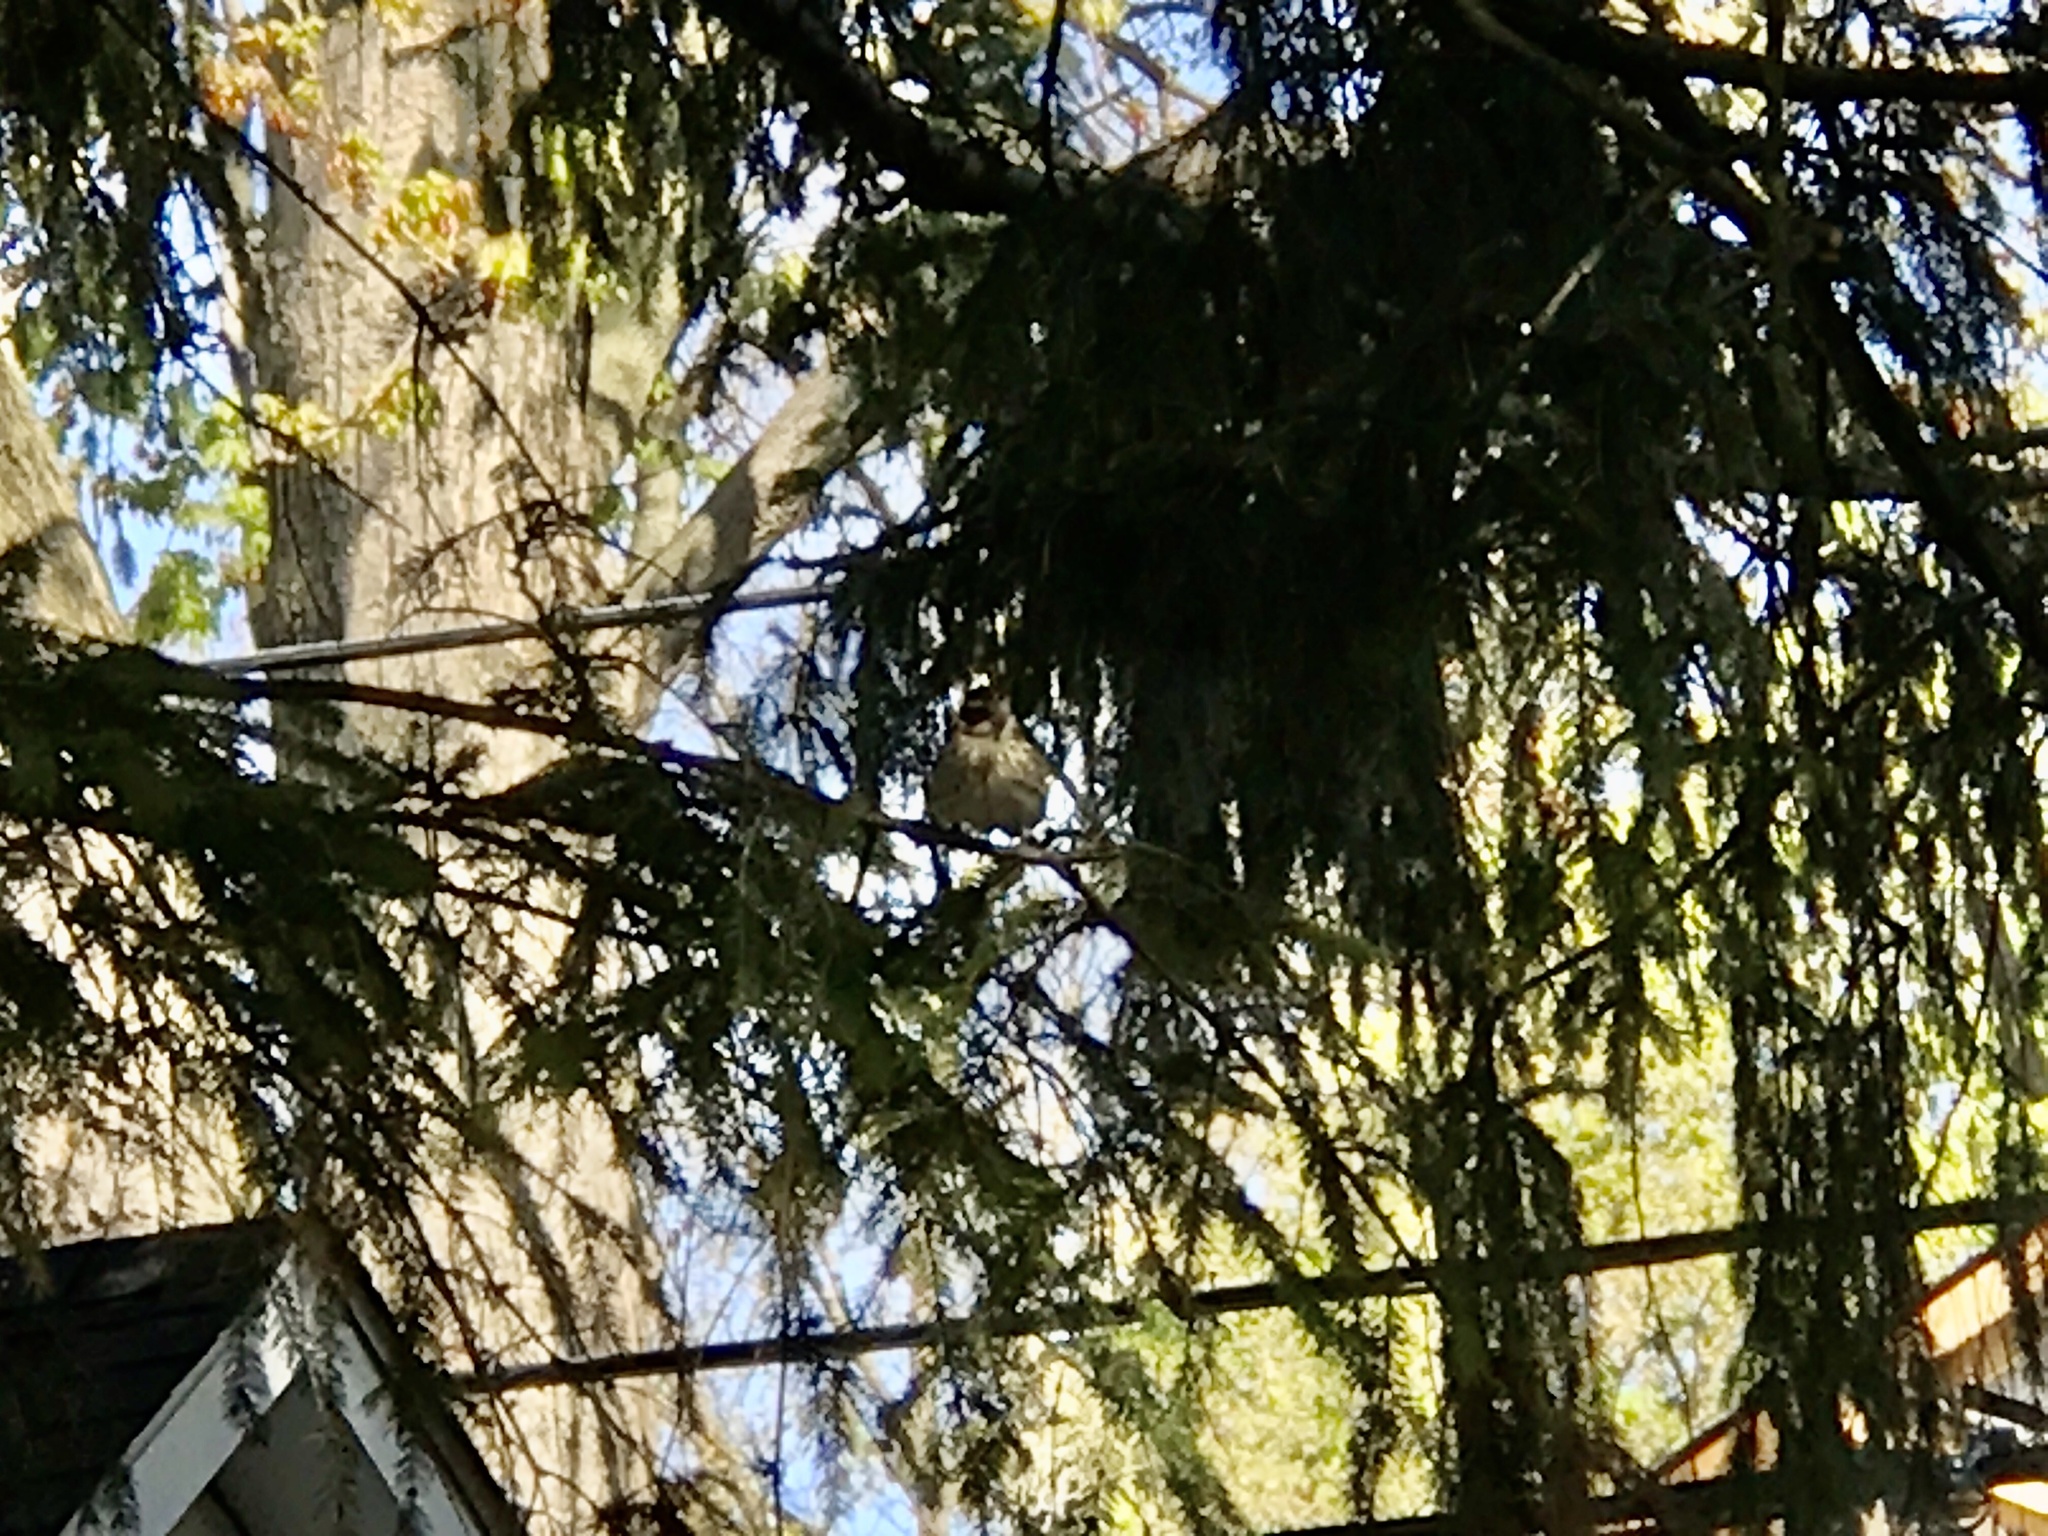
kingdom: Animalia
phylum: Chordata
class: Aves
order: Passeriformes
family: Cardinalidae
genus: Pheucticus
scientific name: Pheucticus ludovicianus
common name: Rose-breasted grosbeak
